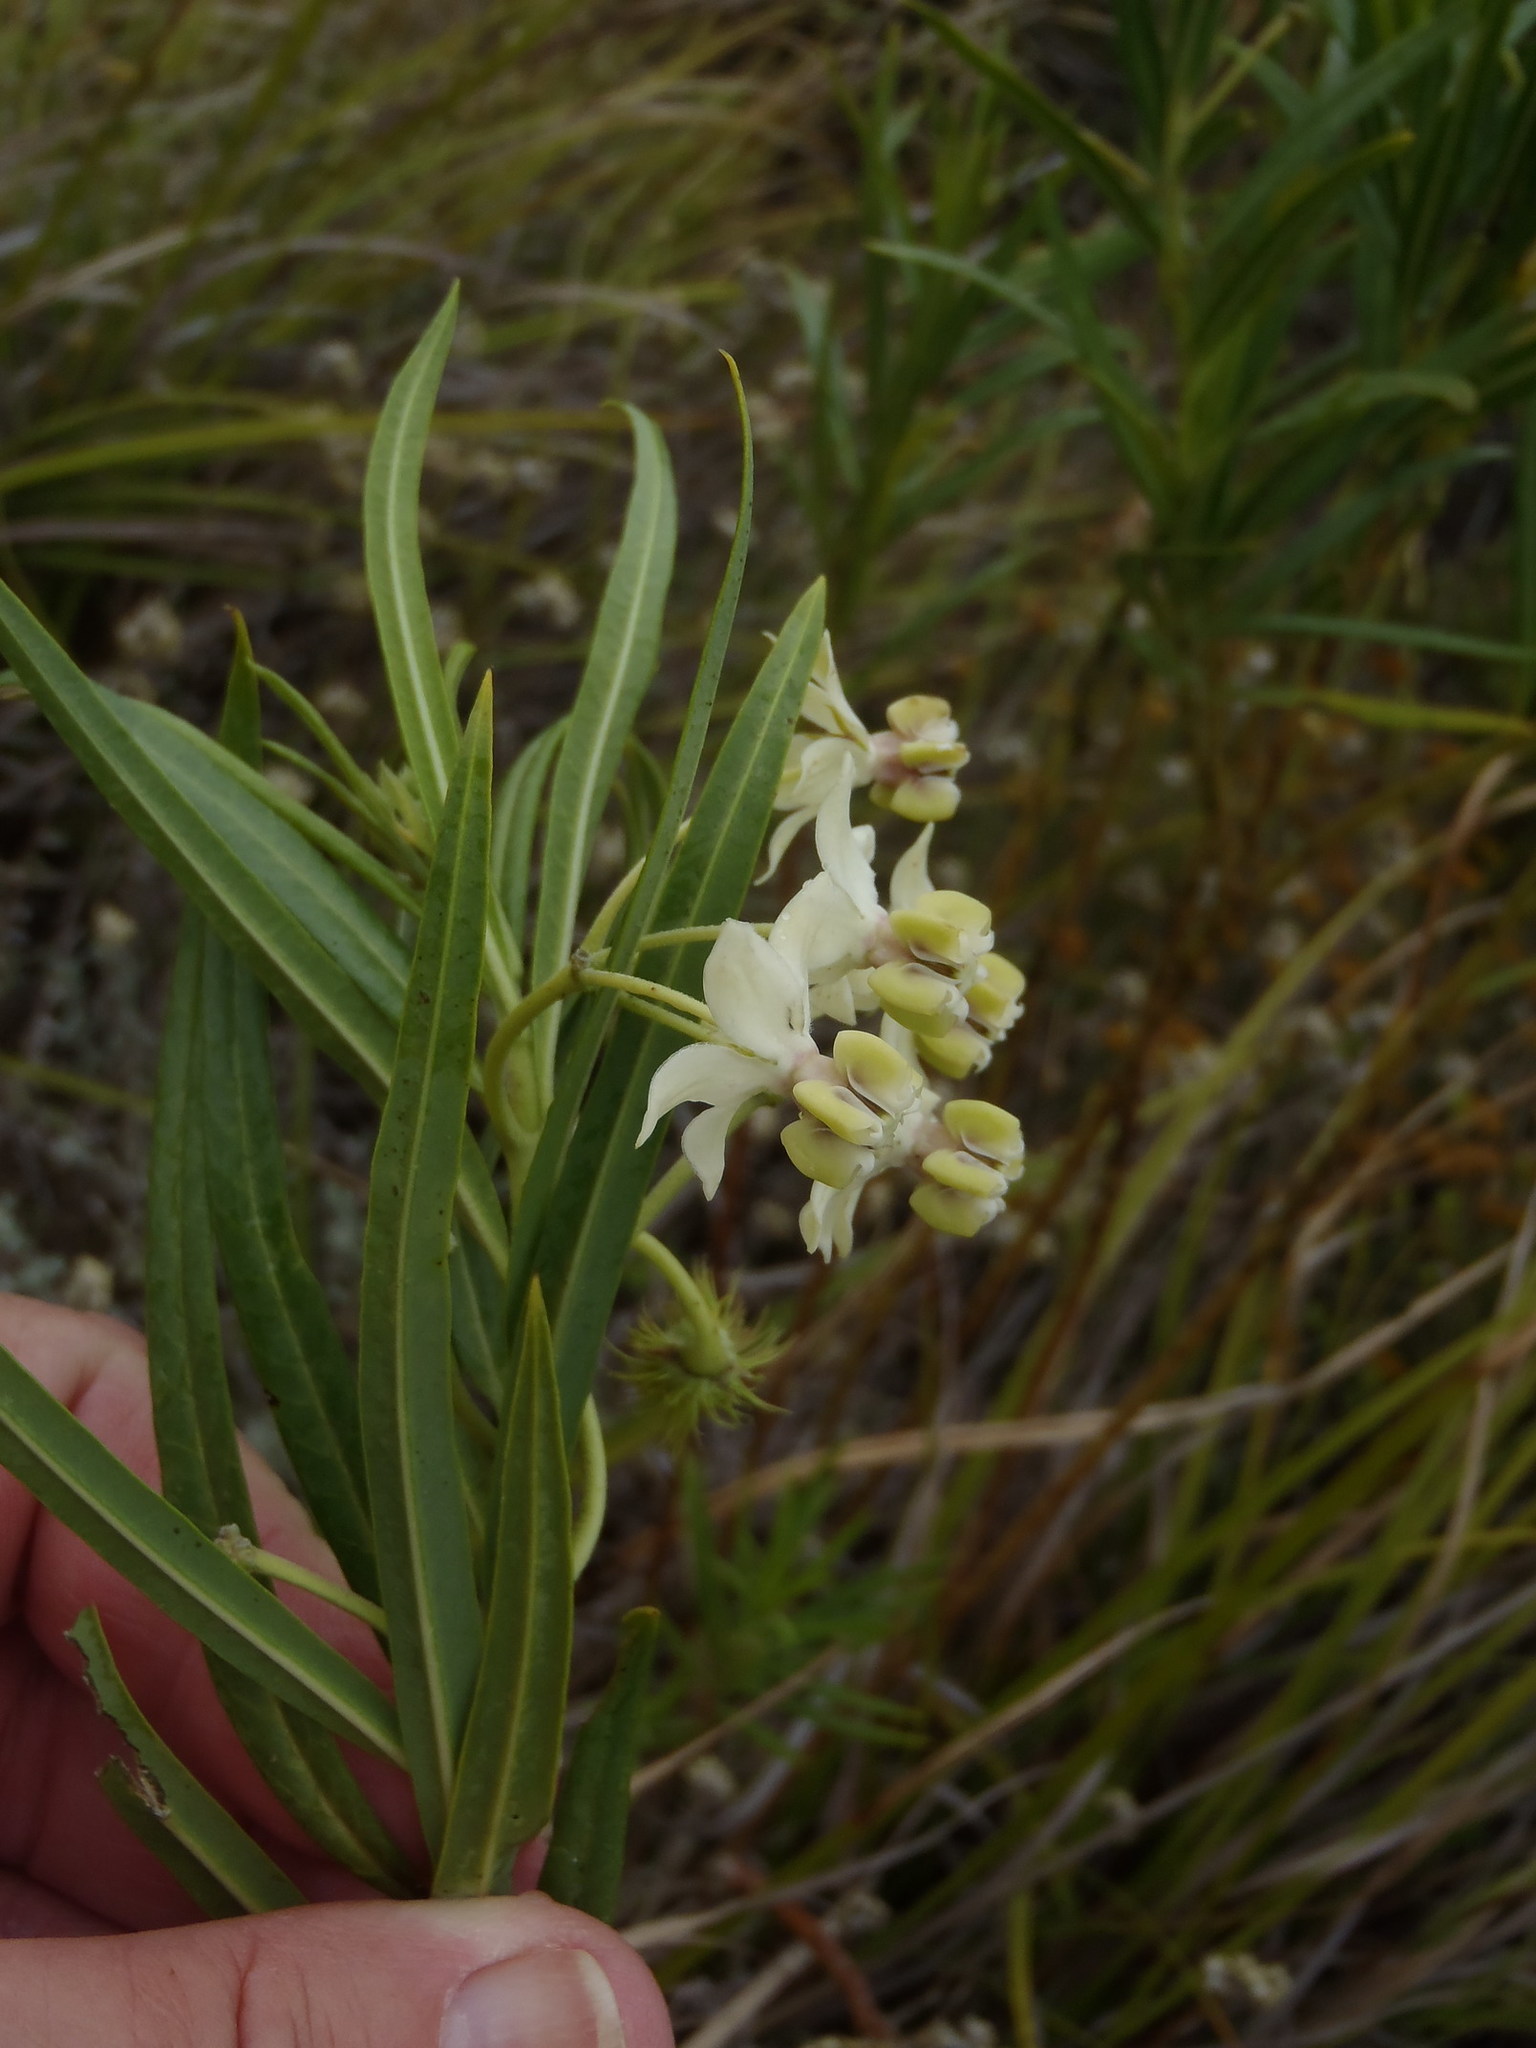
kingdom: Plantae
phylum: Tracheophyta
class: Magnoliopsida
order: Gentianales
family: Apocynaceae
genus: Gomphocarpus
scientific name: Gomphocarpus fruticosus
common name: Milkweed
